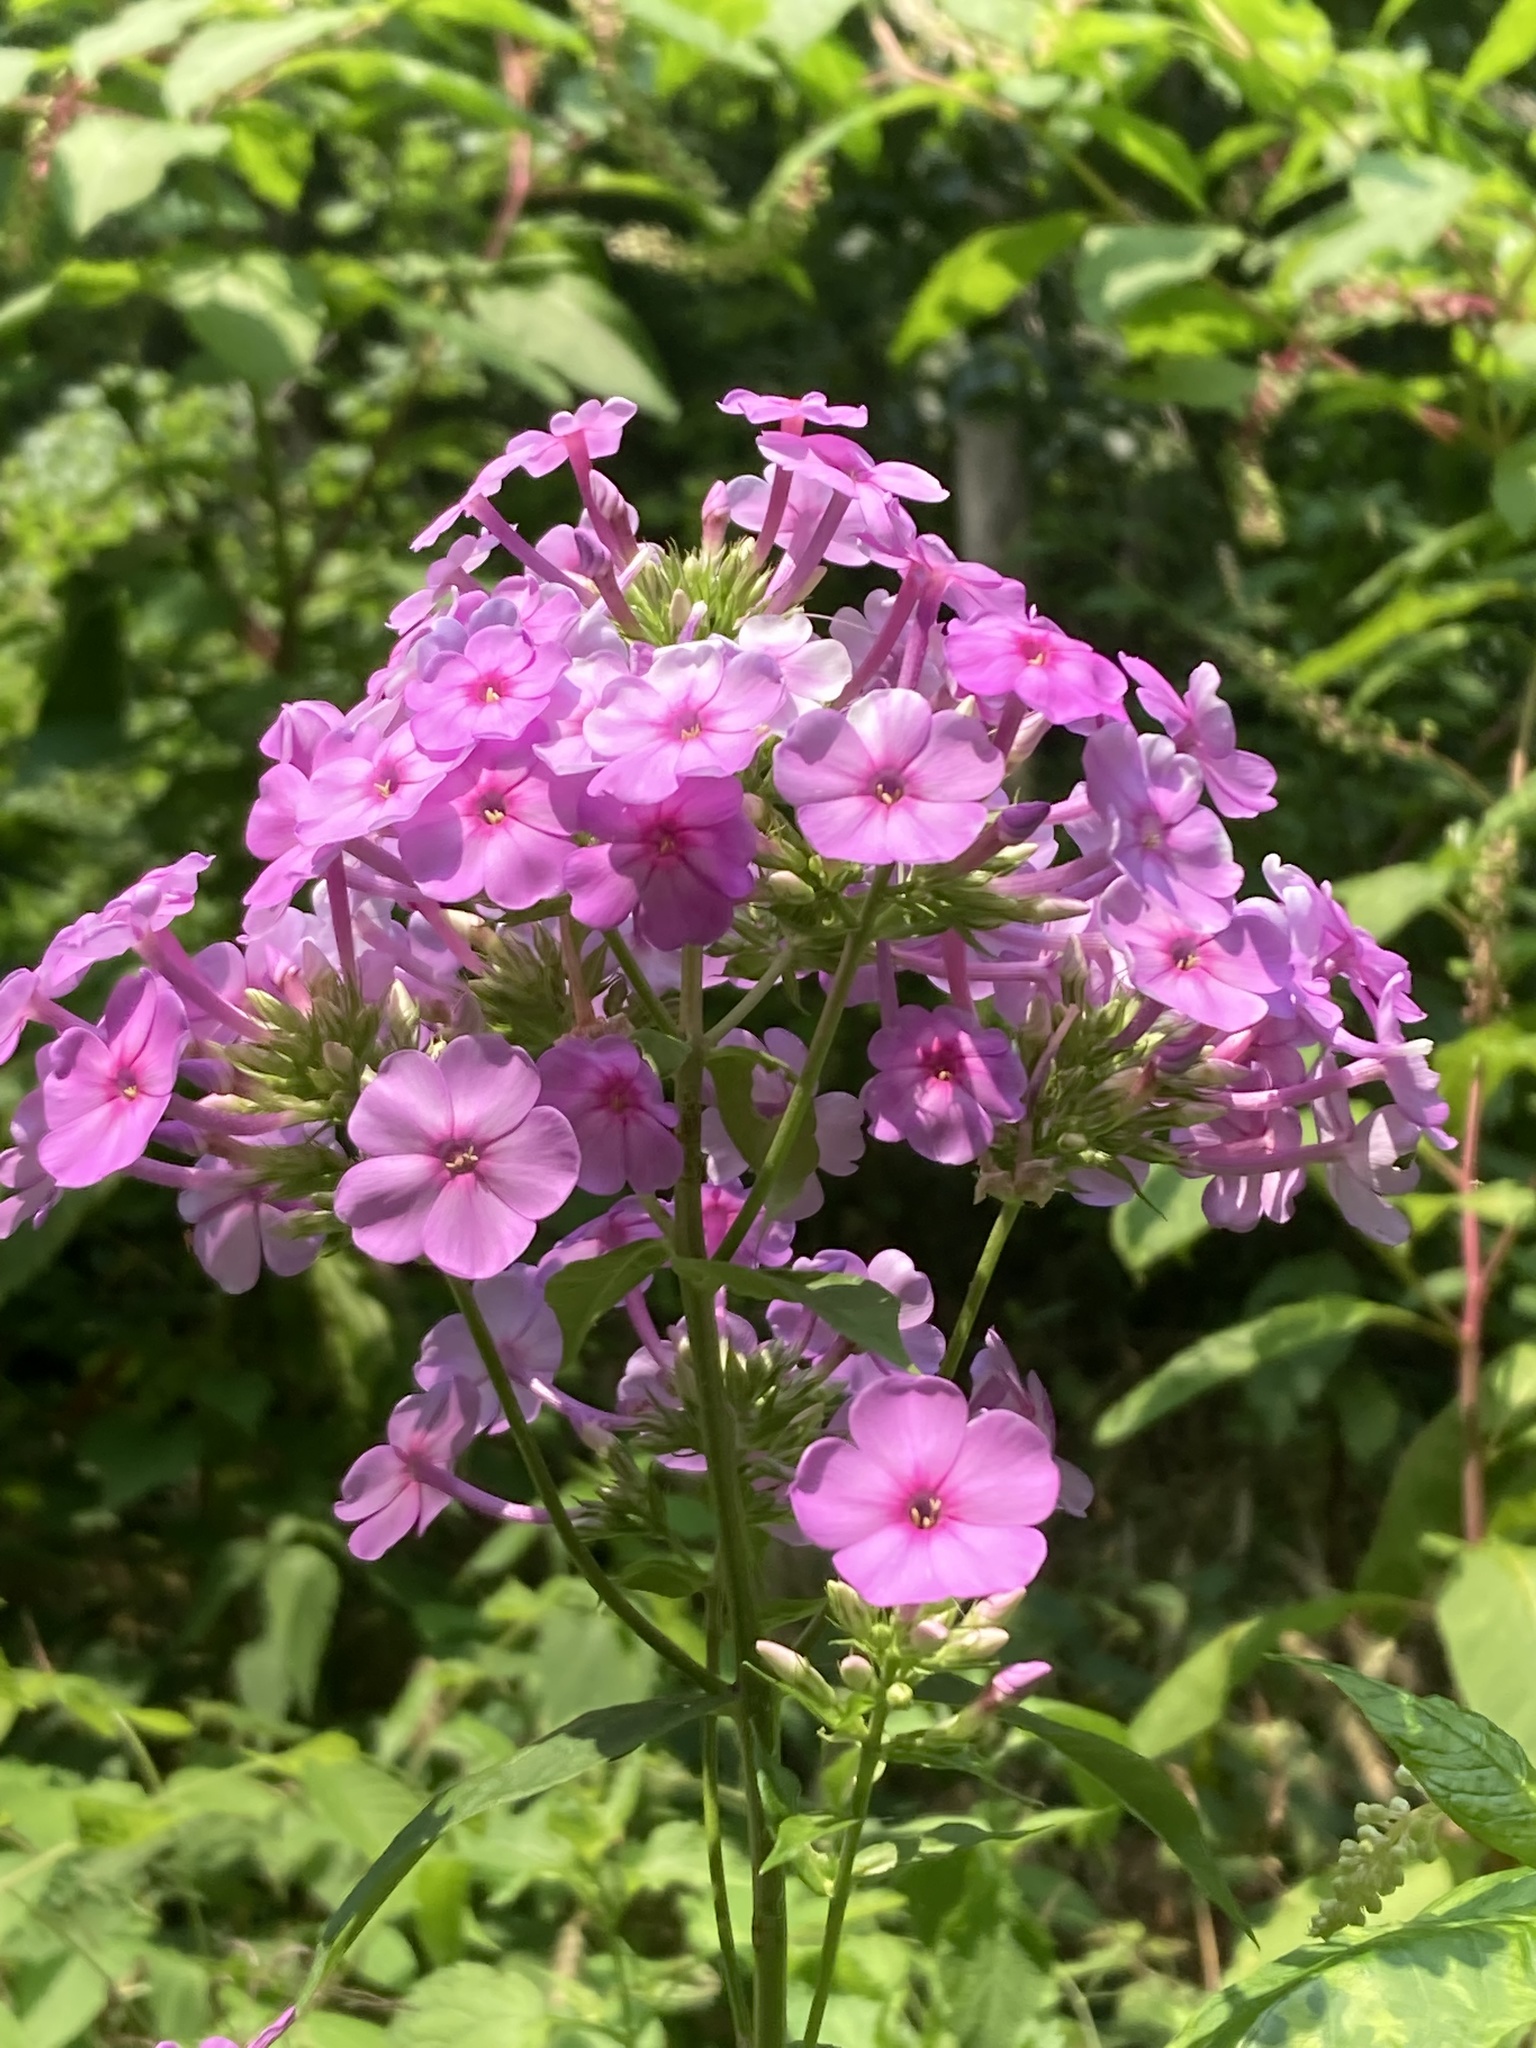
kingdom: Plantae
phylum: Tracheophyta
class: Magnoliopsida
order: Ericales
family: Polemoniaceae
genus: Phlox
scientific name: Phlox paniculata
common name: Fall phlox
